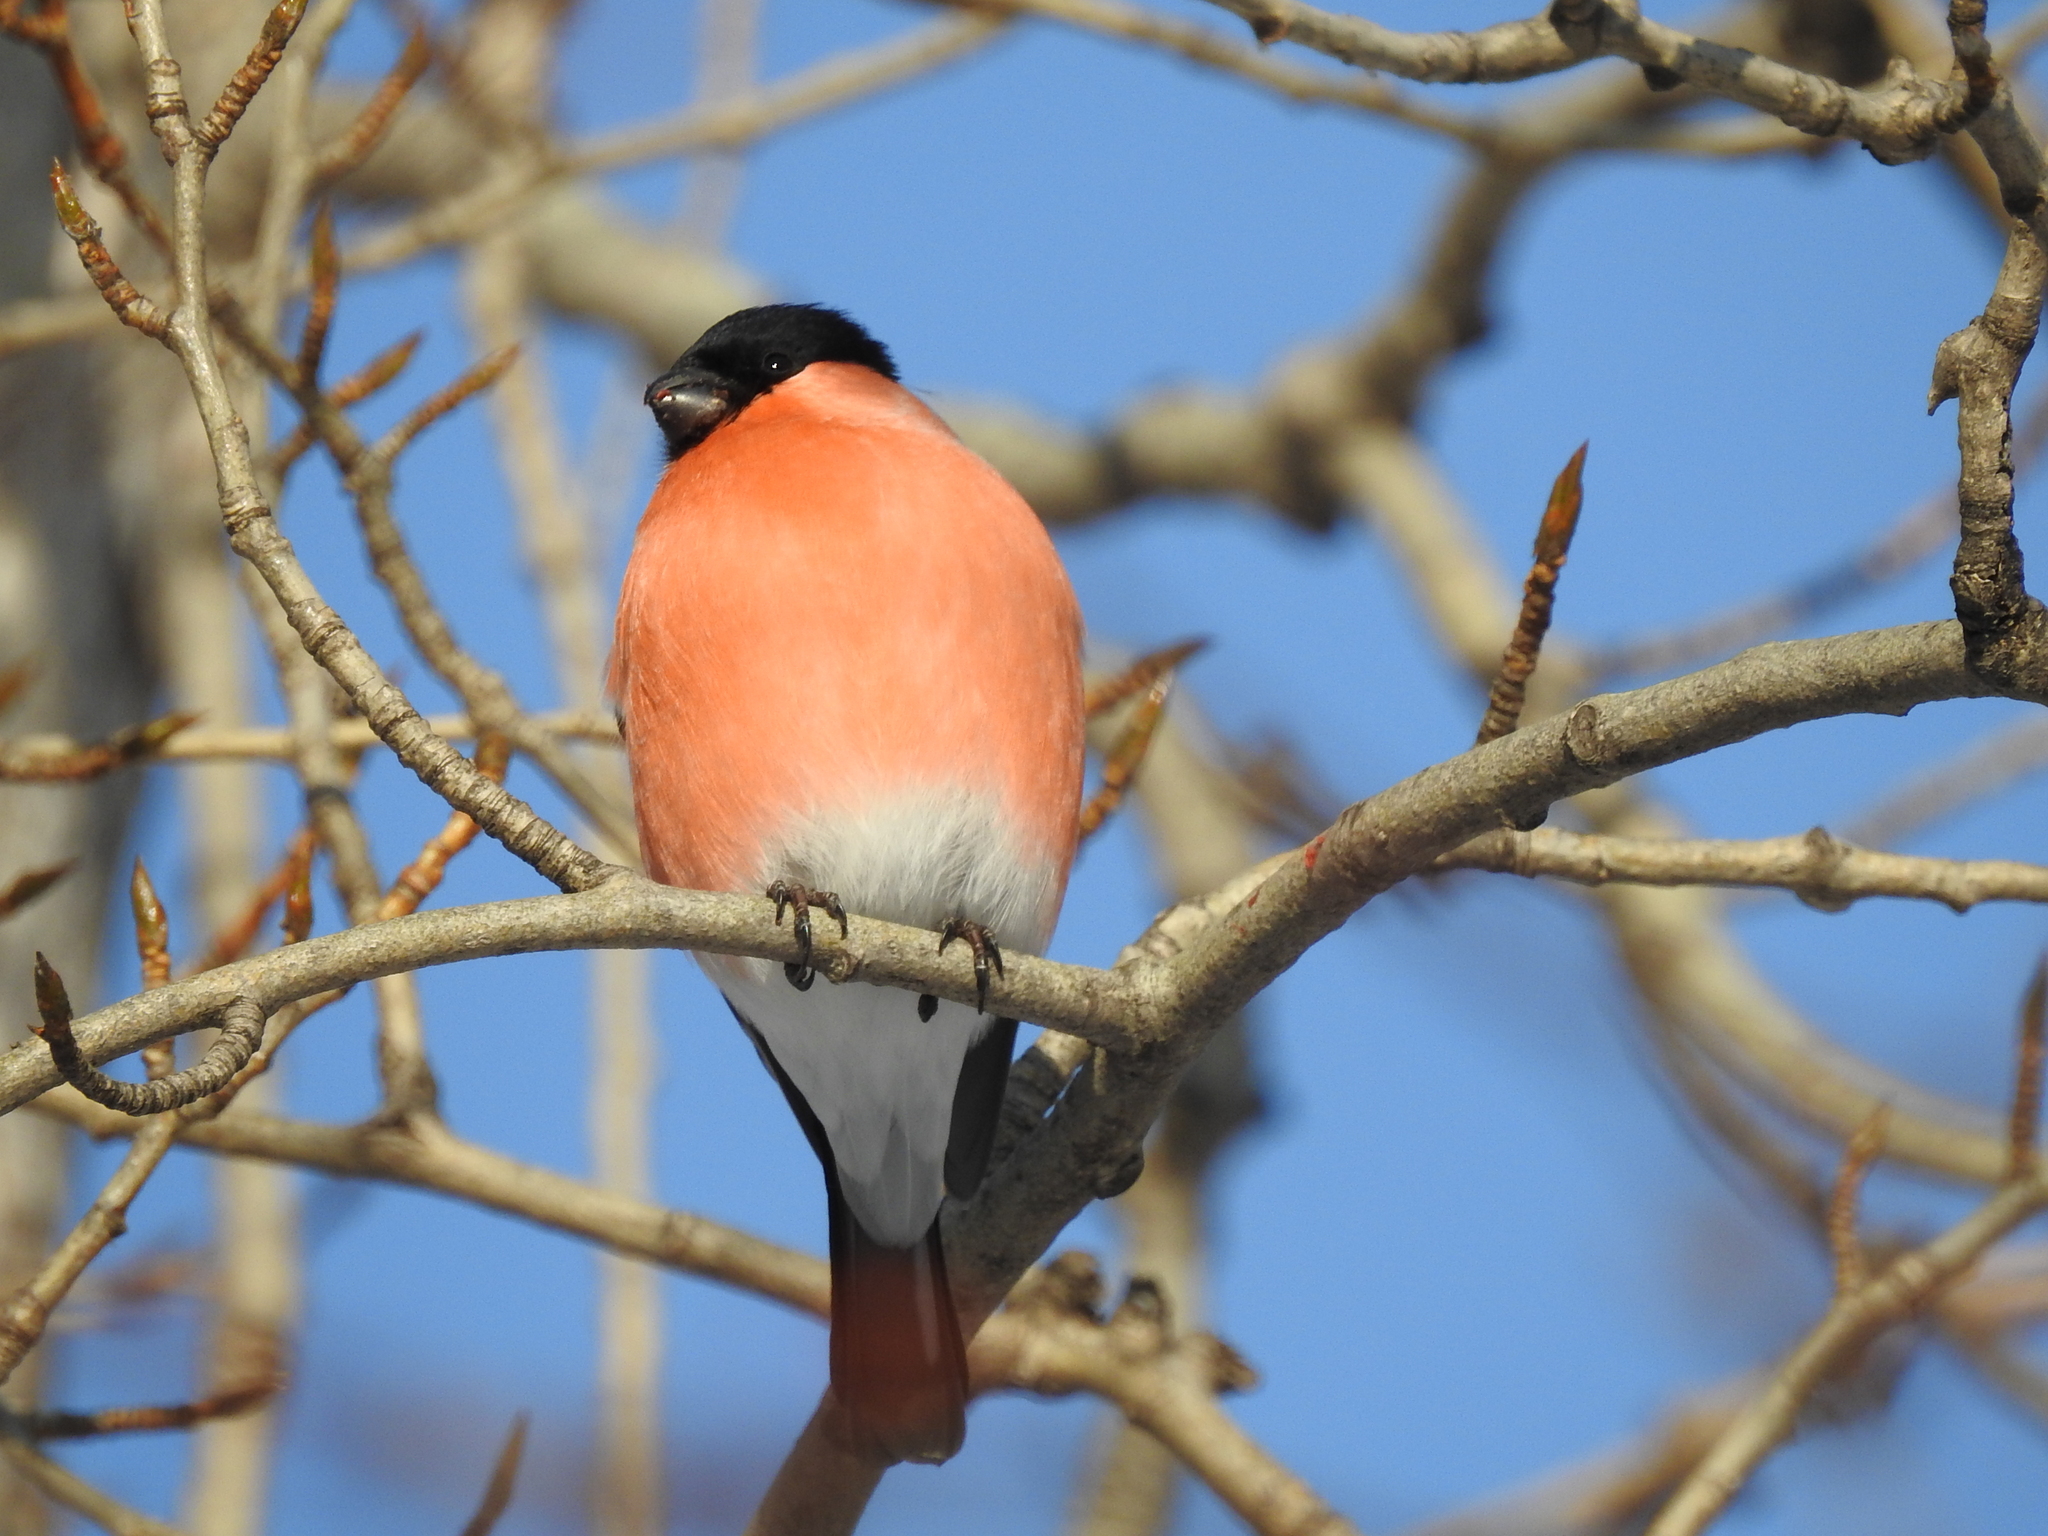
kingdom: Animalia
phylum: Chordata
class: Aves
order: Passeriformes
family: Fringillidae
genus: Pyrrhula
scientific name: Pyrrhula pyrrhula
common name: Eurasian bullfinch
